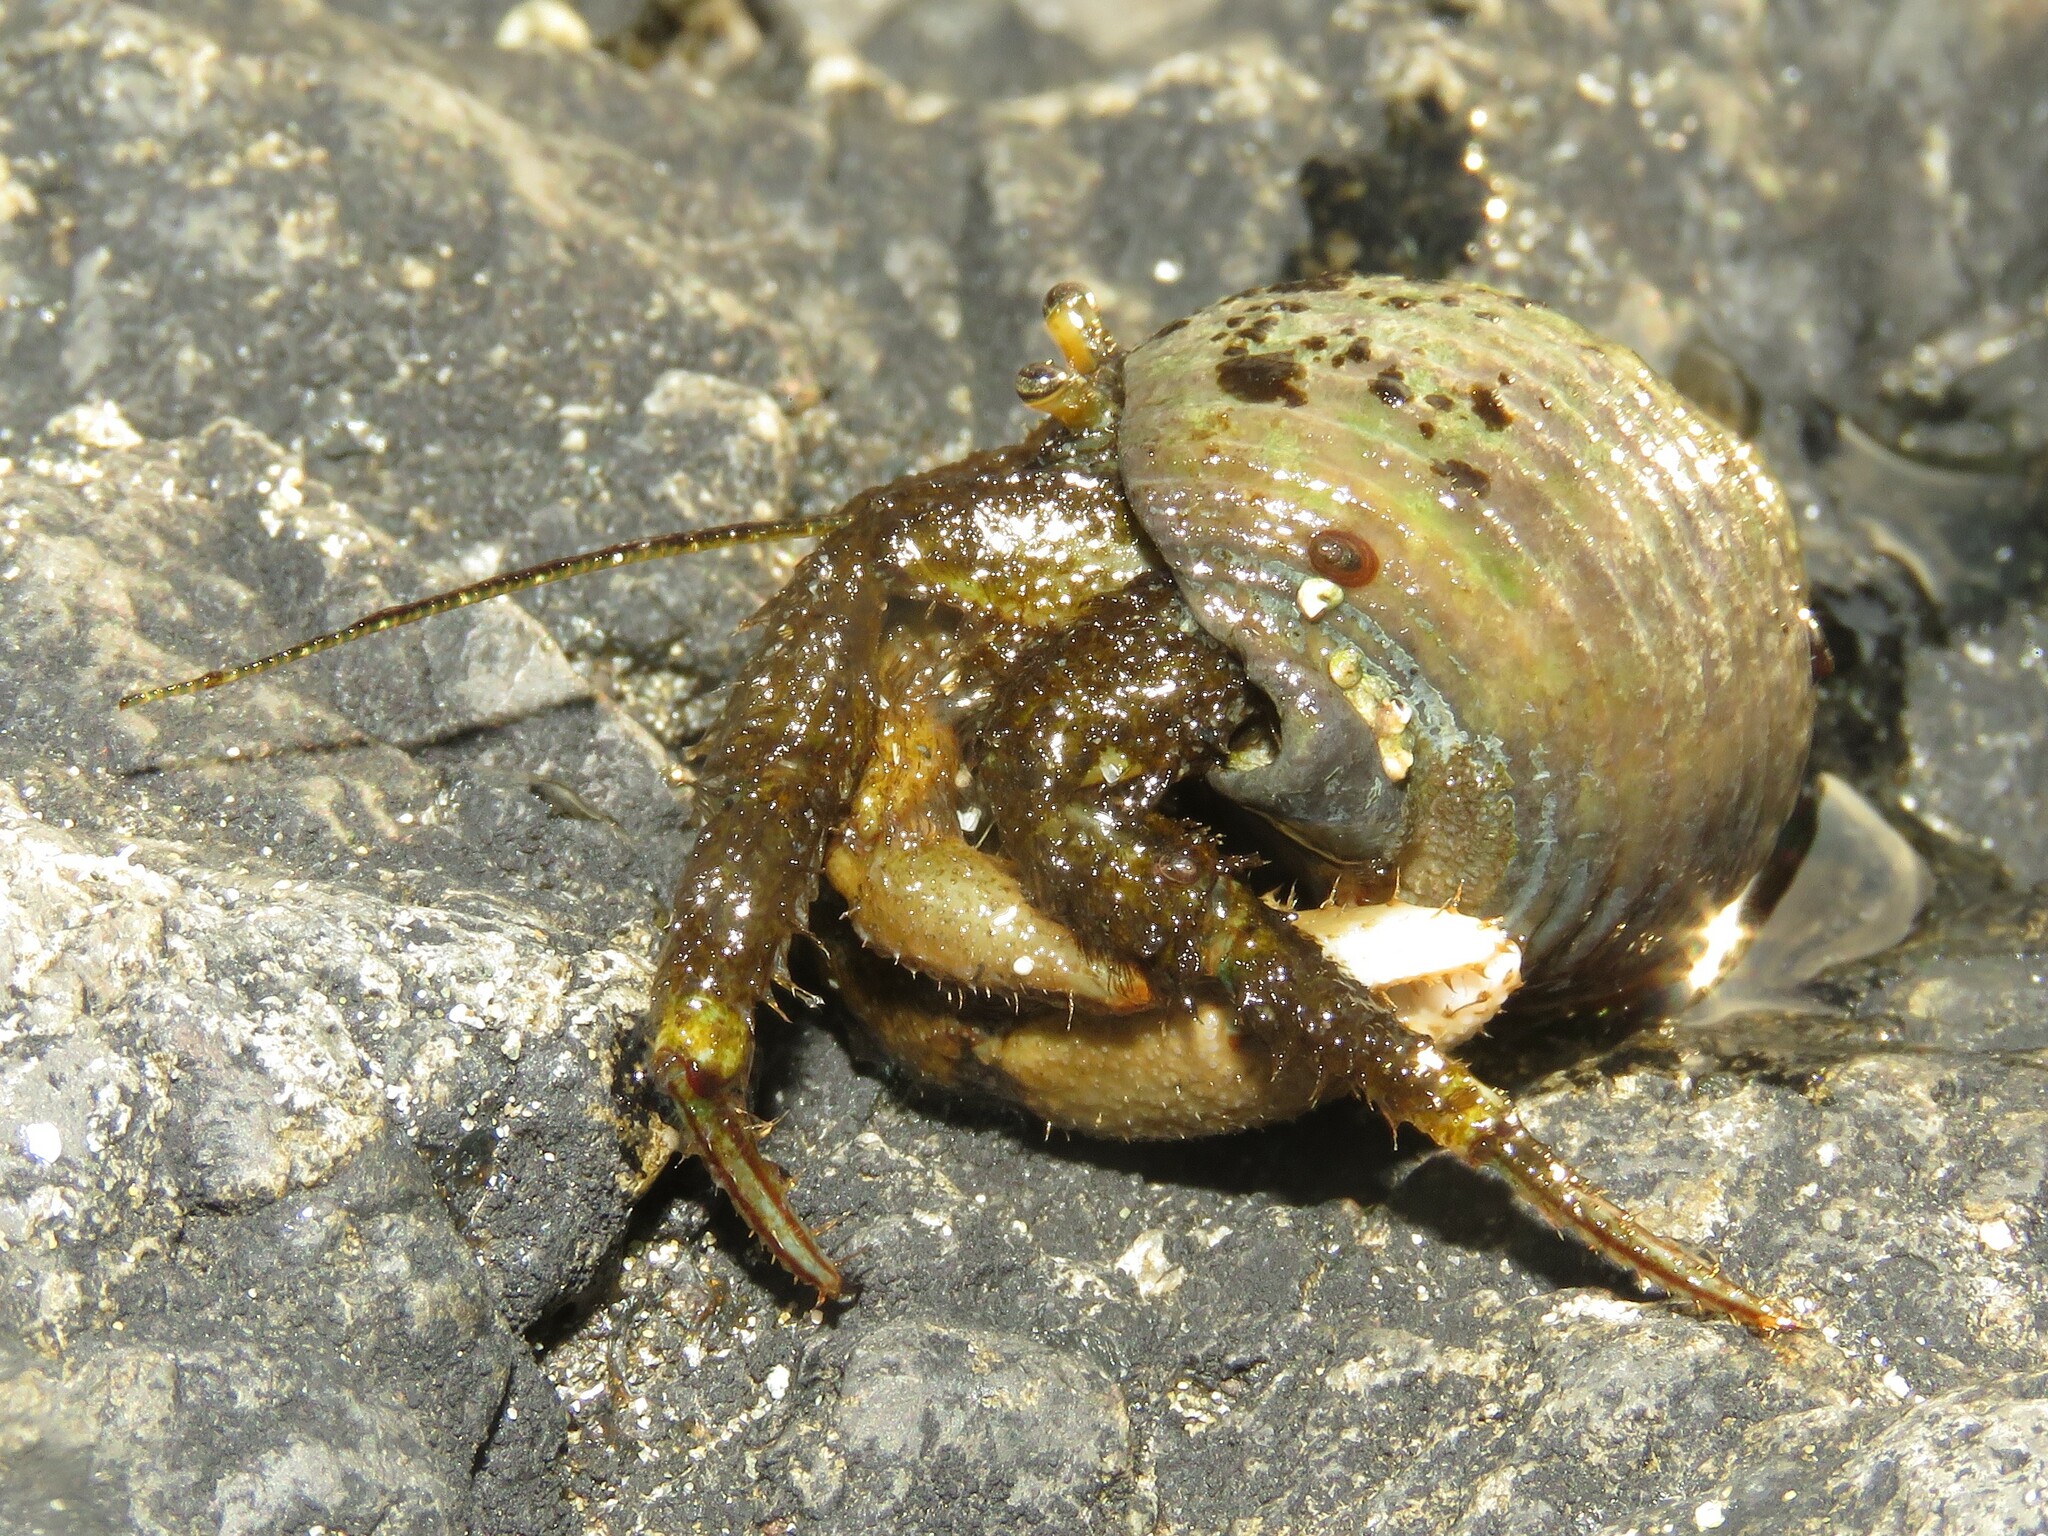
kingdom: Animalia
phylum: Arthropoda
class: Malacostraca
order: Decapoda
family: Paguridae
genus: Pagurus
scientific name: Pagurus hirsutiusculus
